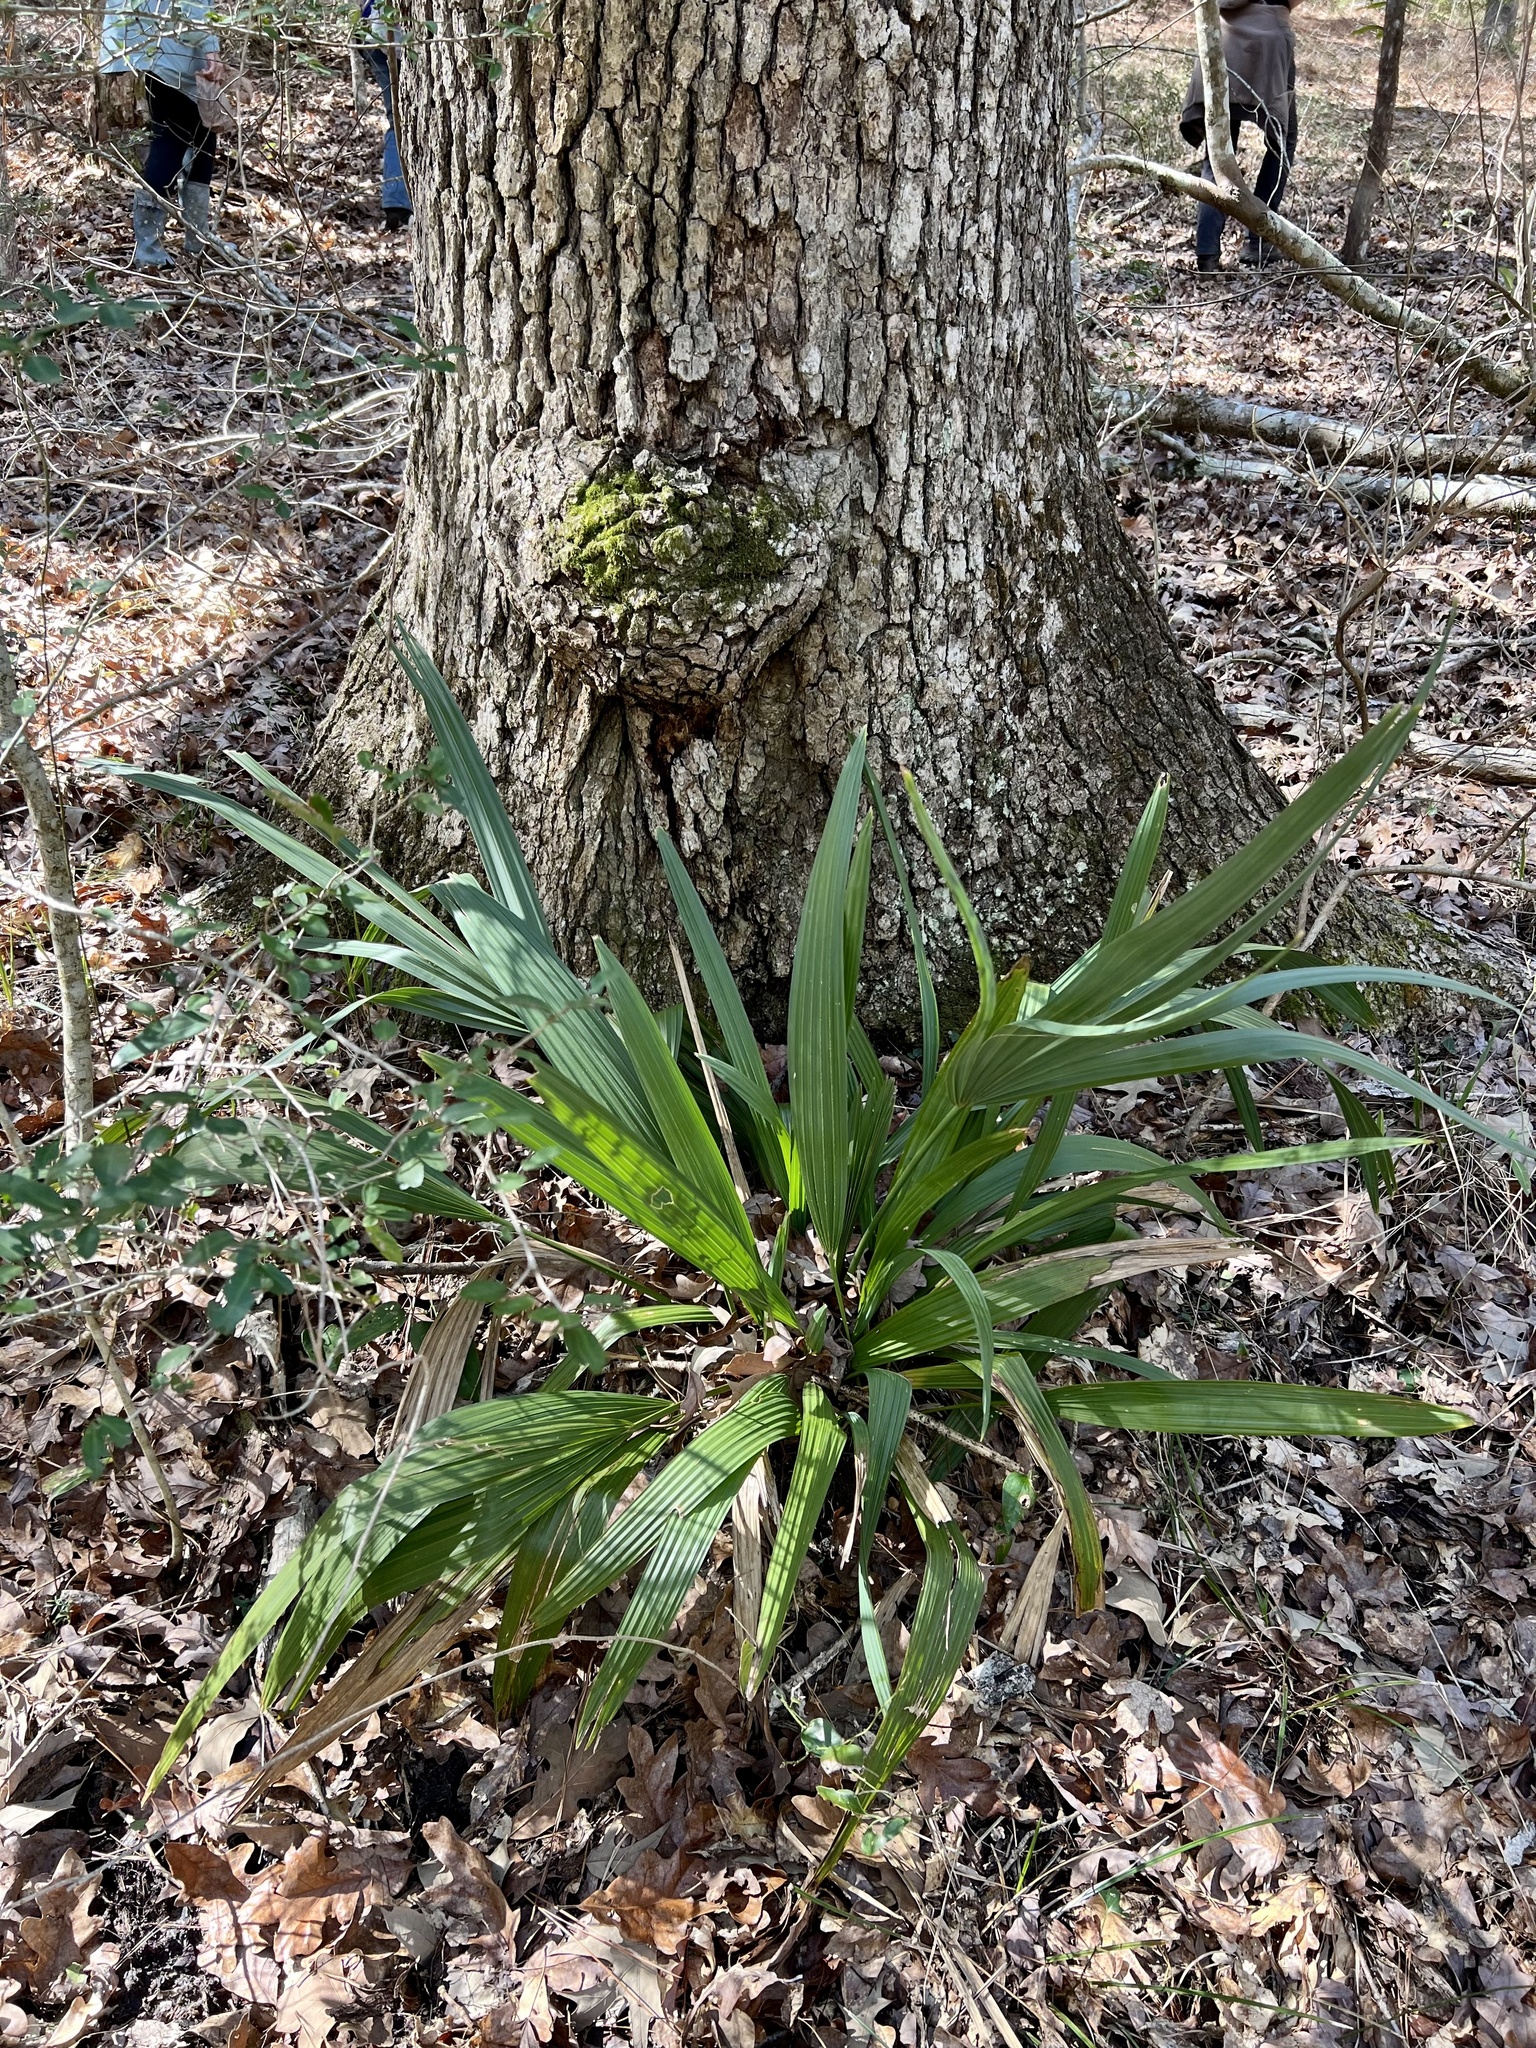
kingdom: Plantae
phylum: Tracheophyta
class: Liliopsida
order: Arecales
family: Arecaceae
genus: Sabal
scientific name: Sabal minor
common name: Dwarf palmetto
